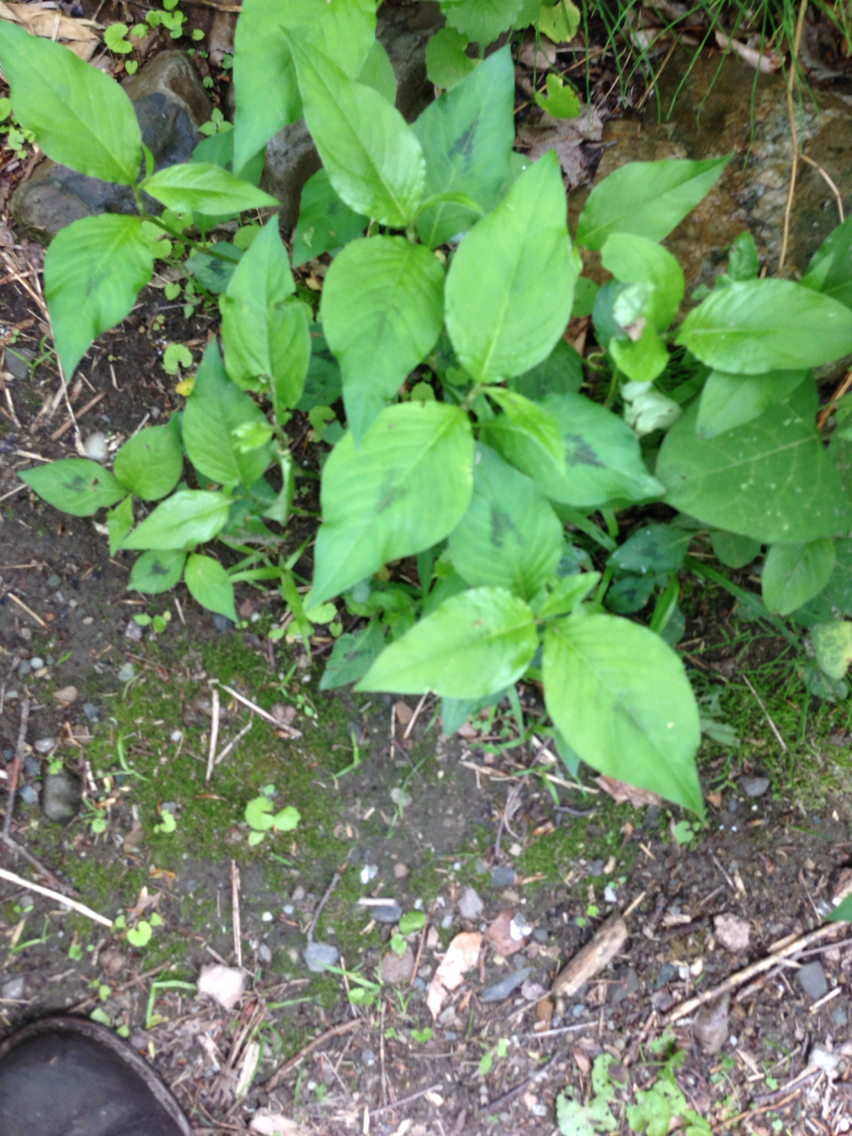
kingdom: Plantae
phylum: Tracheophyta
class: Magnoliopsida
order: Caryophyllales
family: Polygonaceae
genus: Persicaria
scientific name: Persicaria virginiana
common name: Jumpseed
